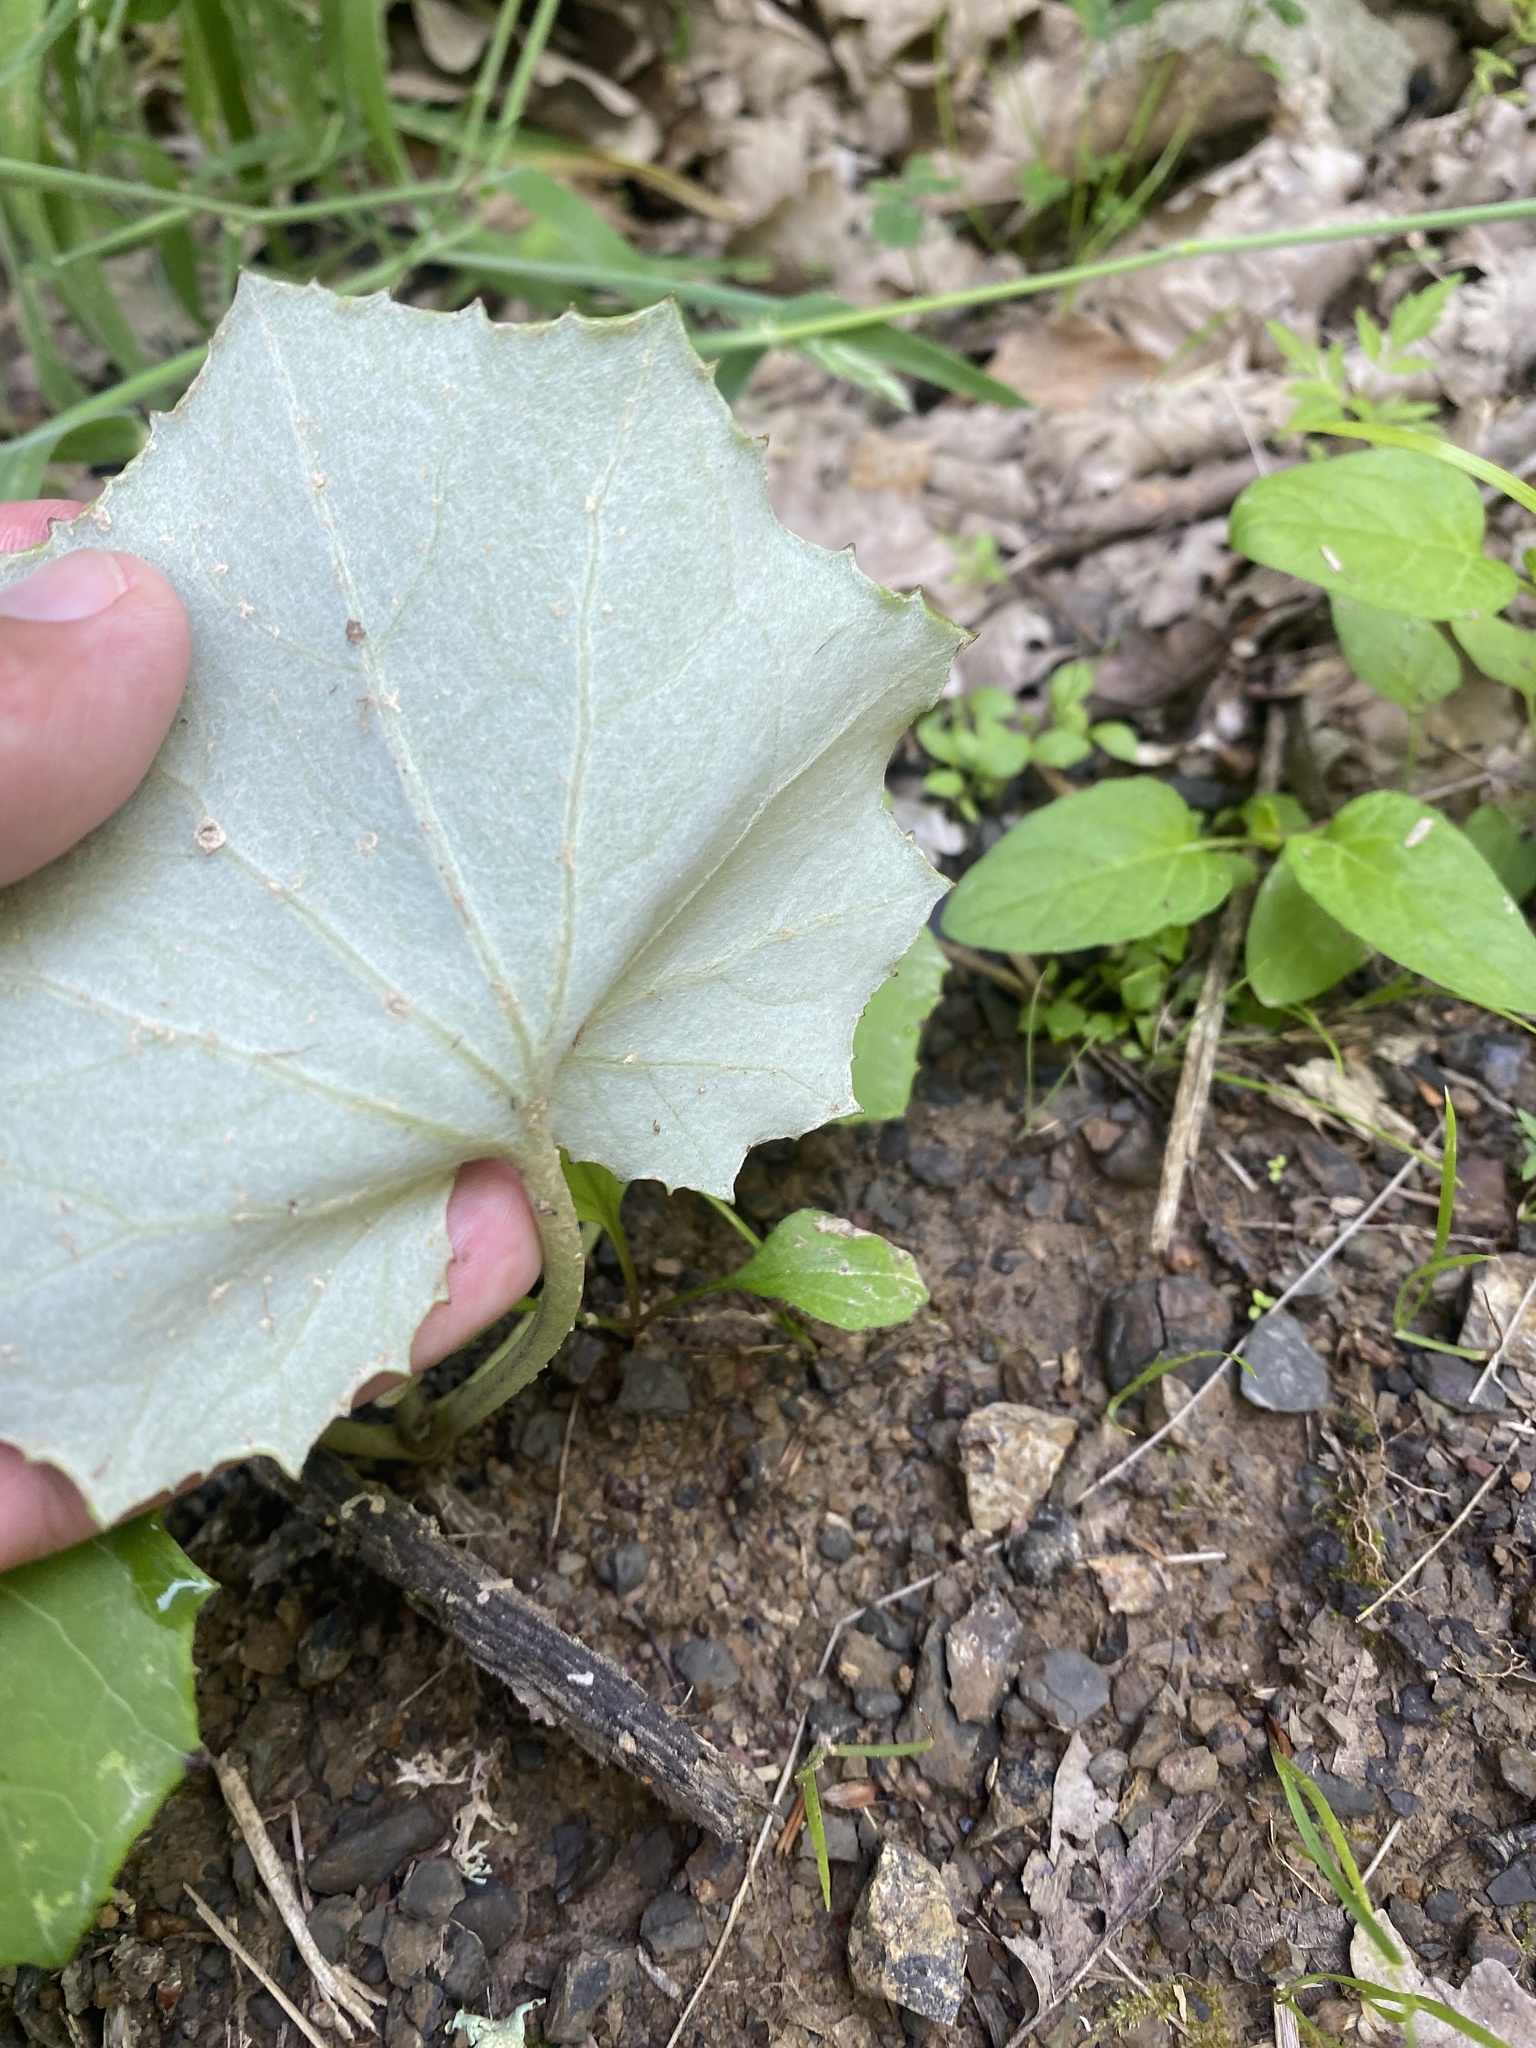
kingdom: Plantae
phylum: Tracheophyta
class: Magnoliopsida
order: Asterales
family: Asteraceae
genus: Tussilago
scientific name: Tussilago farfara
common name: Coltsfoot
